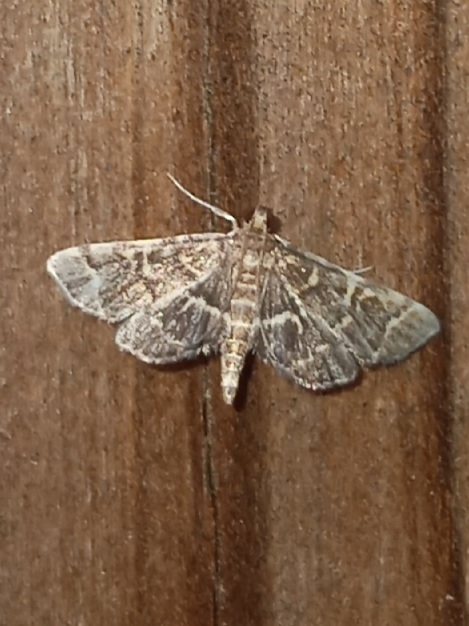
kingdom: Animalia
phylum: Arthropoda
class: Insecta
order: Lepidoptera
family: Crambidae
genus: Anageshna
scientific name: Anageshna primordialis
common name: Yellow-spotted webworm moth
